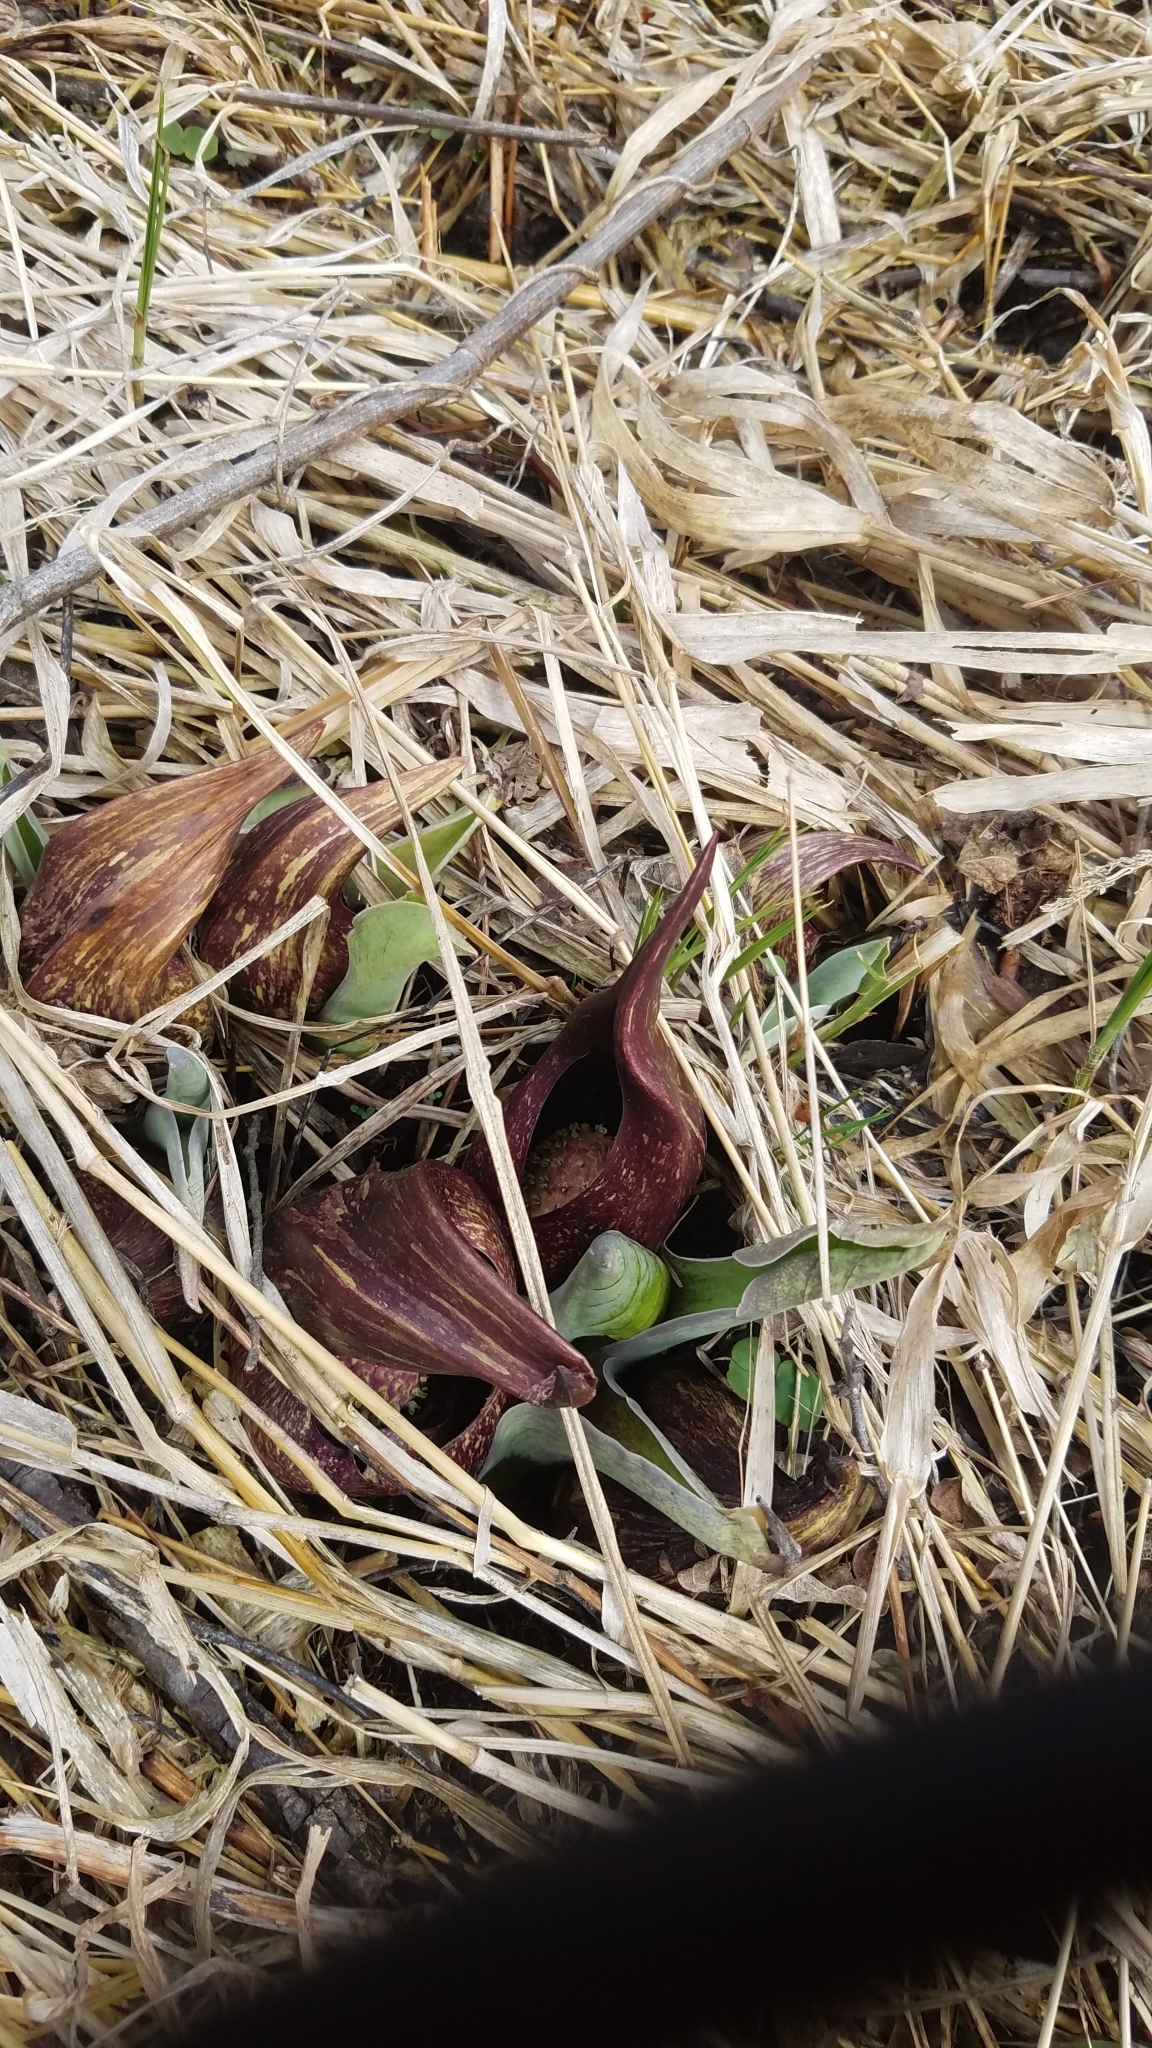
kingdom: Plantae
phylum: Tracheophyta
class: Liliopsida
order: Alismatales
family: Araceae
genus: Symplocarpus
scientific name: Symplocarpus foetidus
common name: Eastern skunk cabbage
